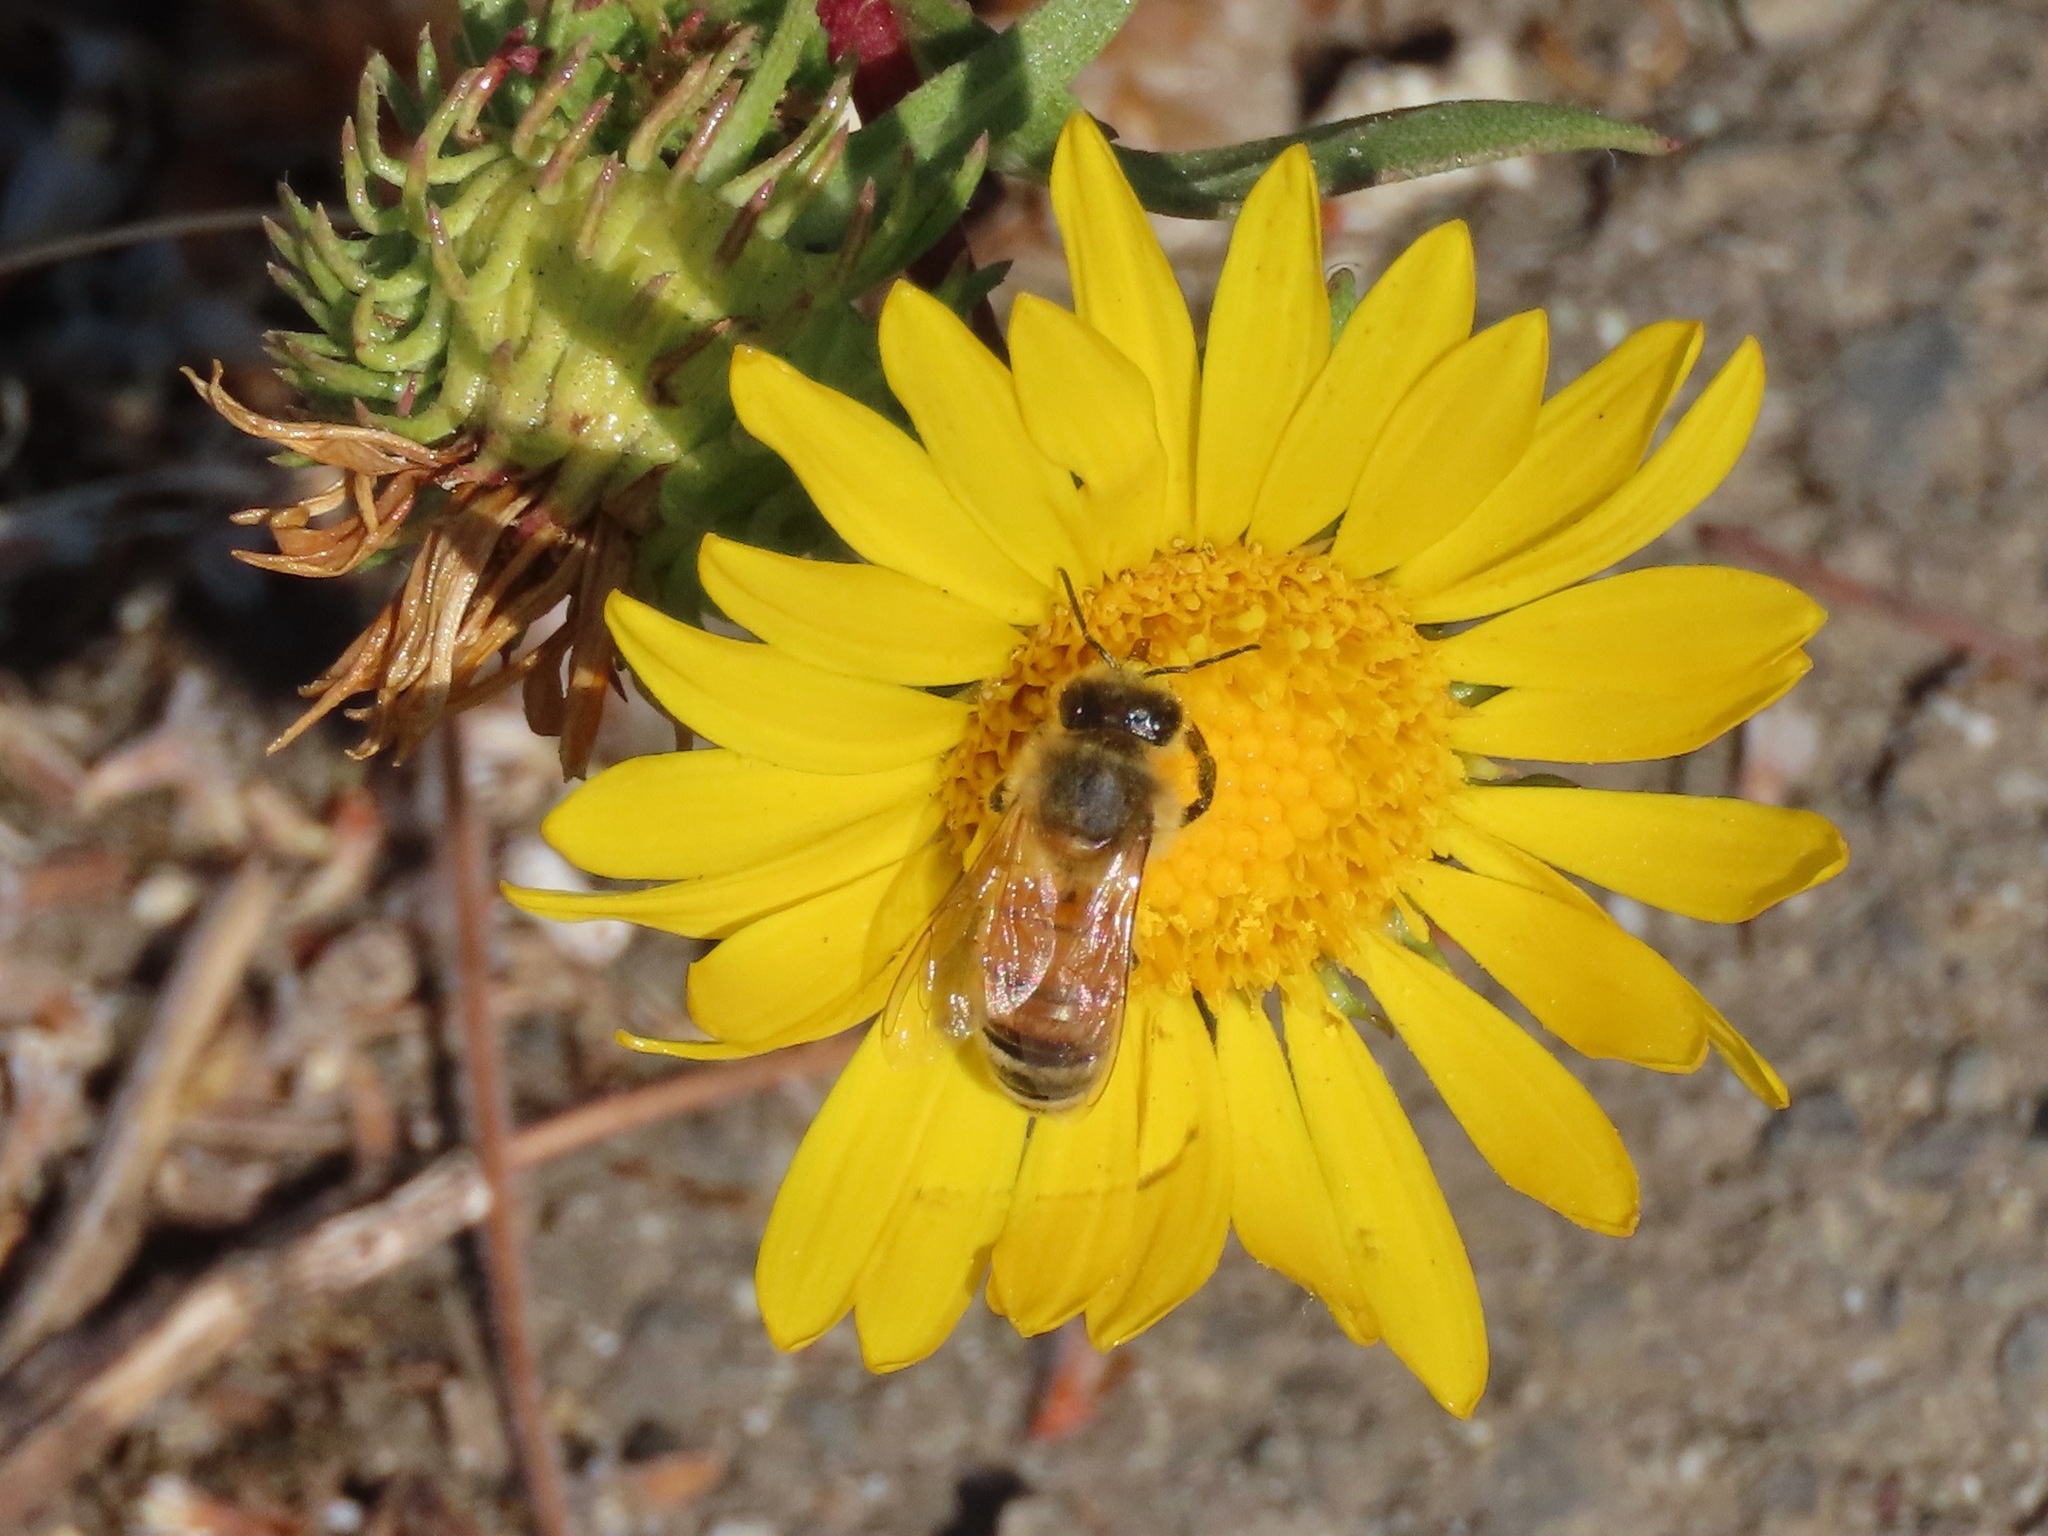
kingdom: Animalia
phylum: Arthropoda
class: Insecta
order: Hymenoptera
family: Apidae
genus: Apis
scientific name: Apis mellifera
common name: Honey bee
